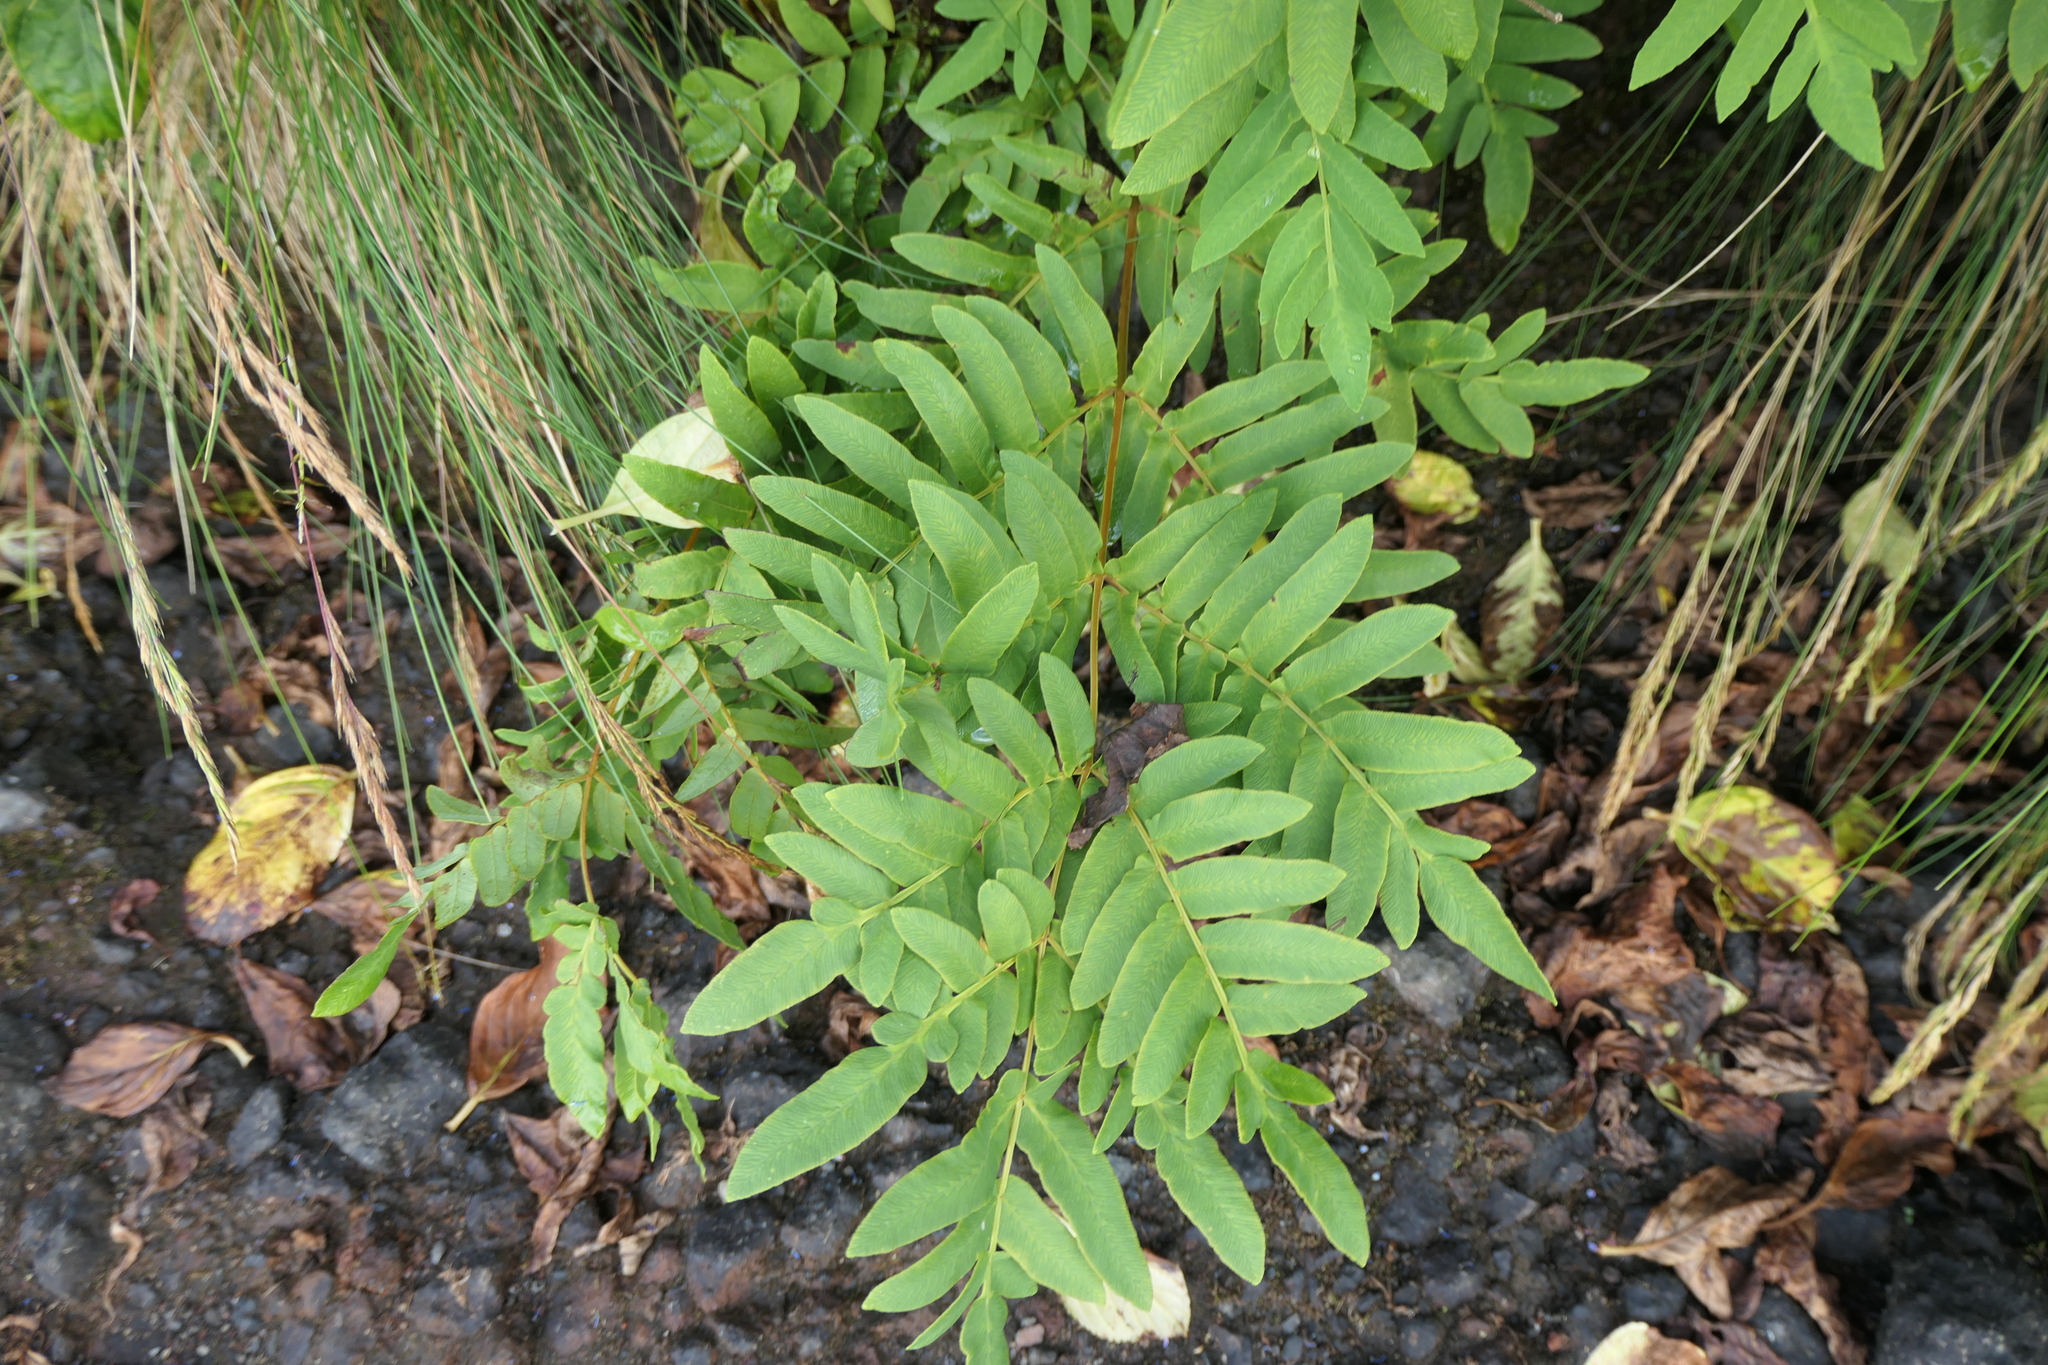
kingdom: Plantae
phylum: Tracheophyta
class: Polypodiopsida
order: Osmundales
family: Osmundaceae
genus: Osmunda
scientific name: Osmunda regalis
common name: Royal fern
